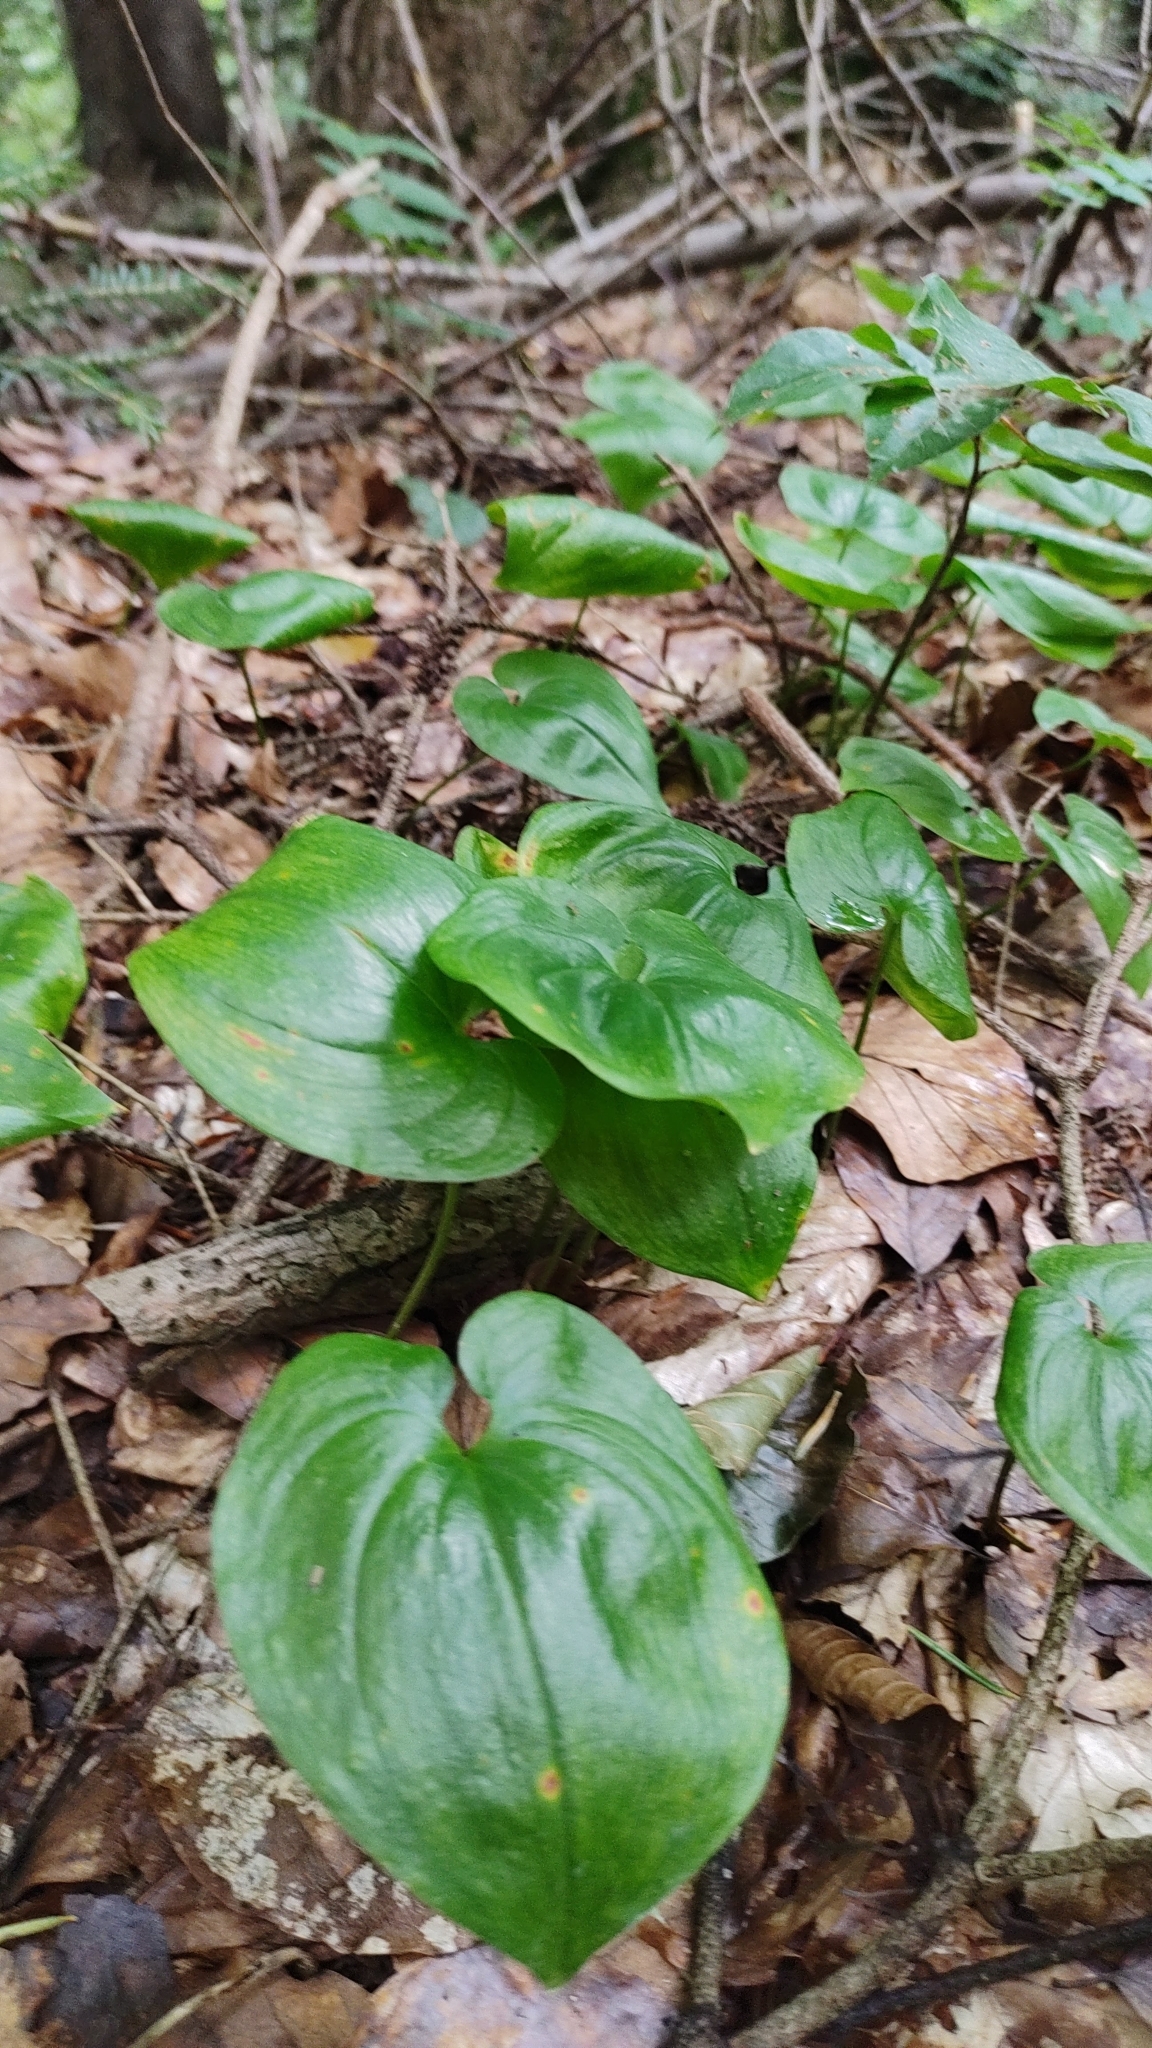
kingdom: Plantae
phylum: Tracheophyta
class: Liliopsida
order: Asparagales
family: Asparagaceae
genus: Maianthemum
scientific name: Maianthemum bifolium
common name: May lily
